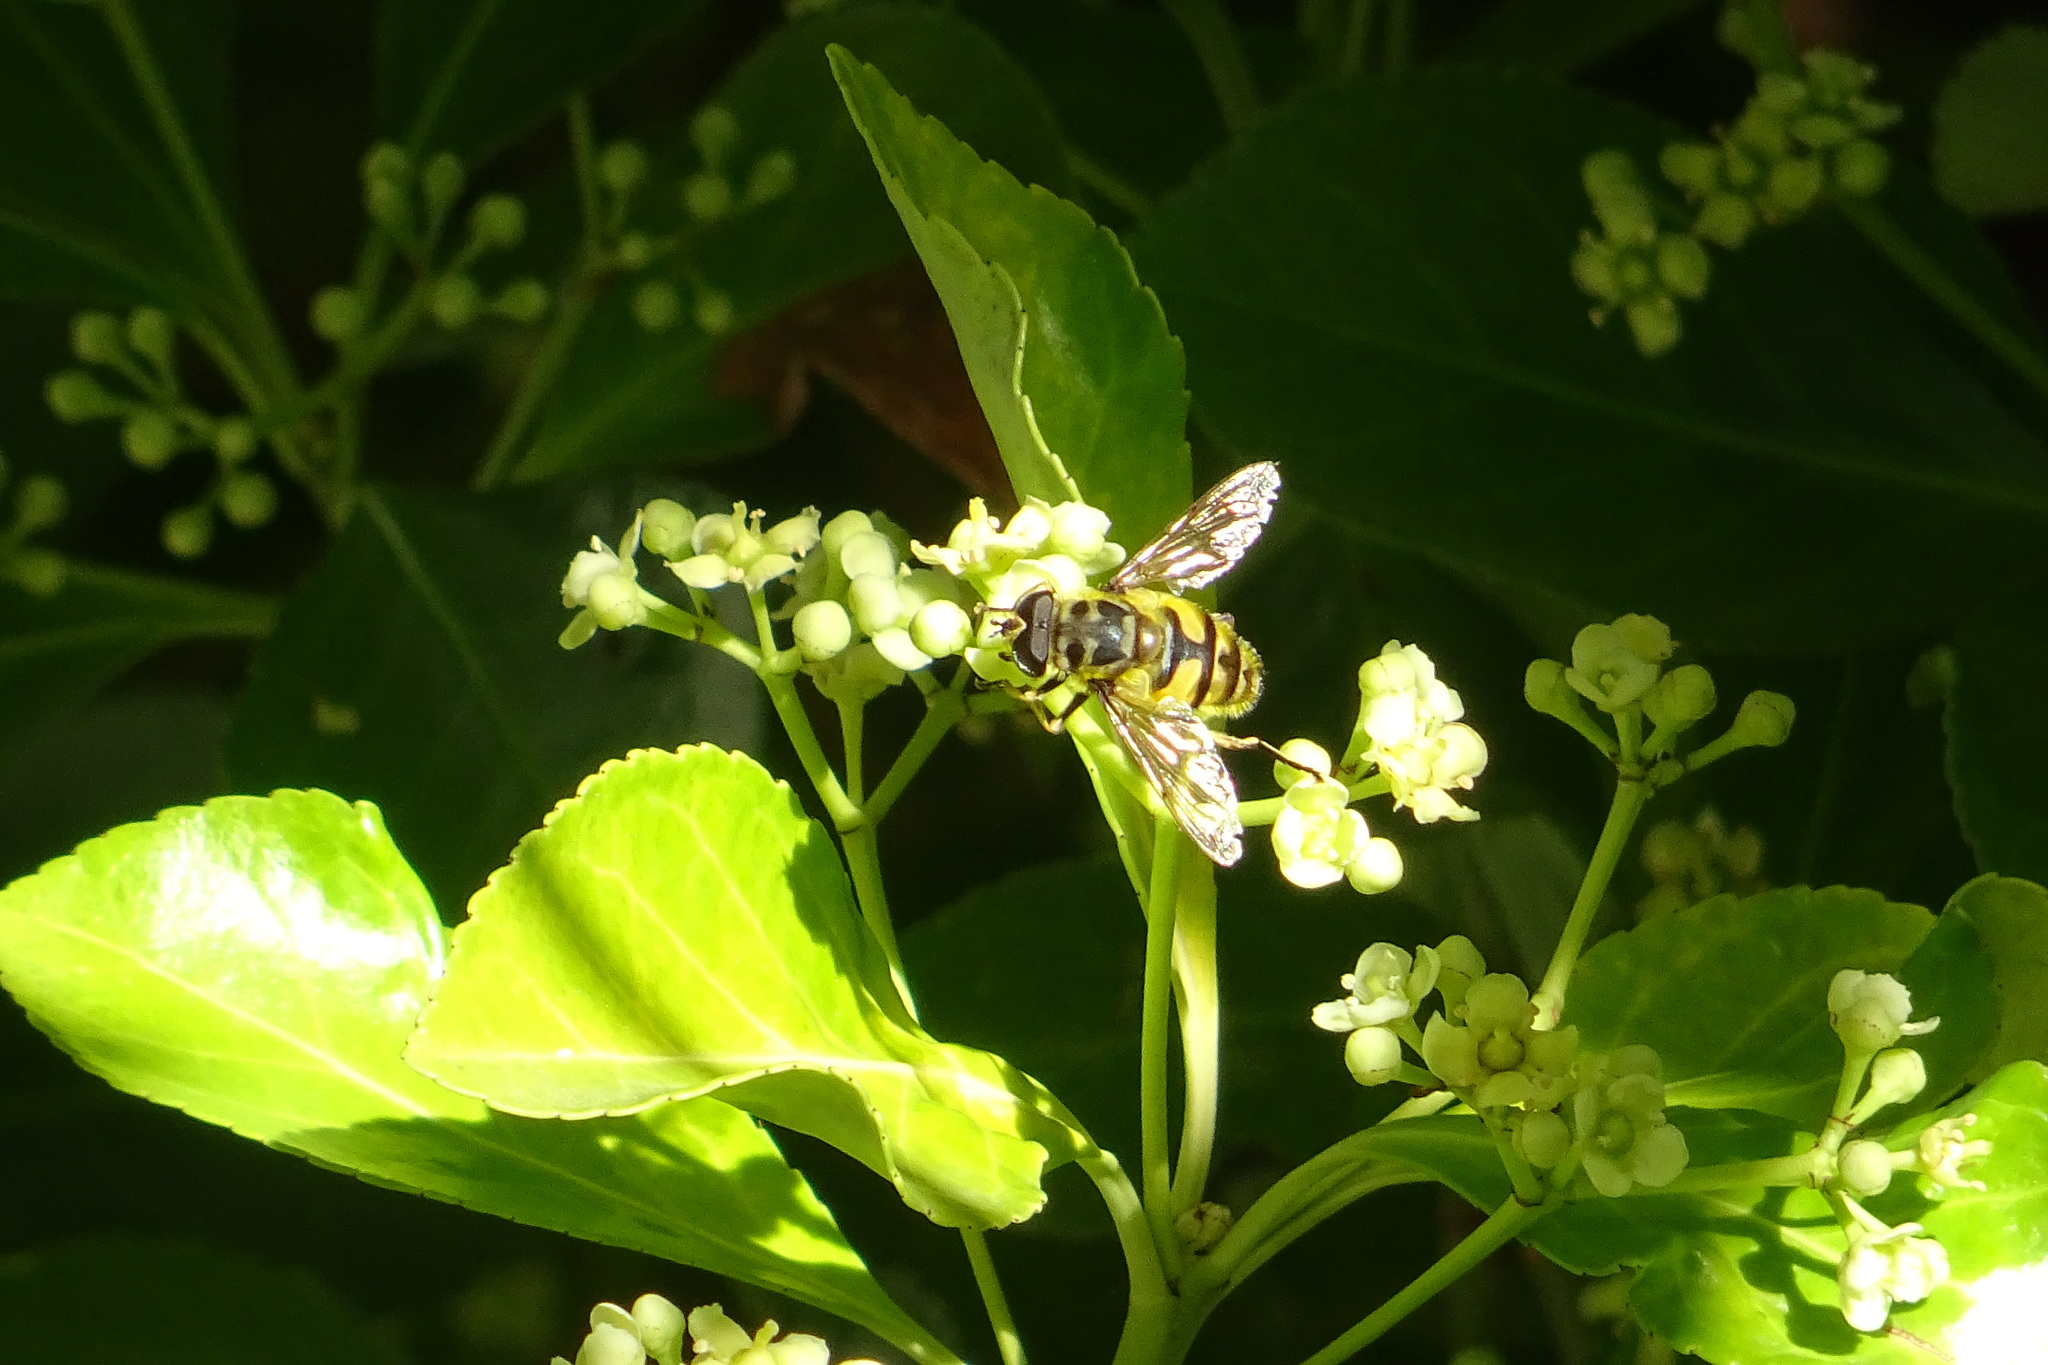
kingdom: Animalia
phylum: Arthropoda
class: Insecta
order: Diptera
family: Syrphidae
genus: Myathropa
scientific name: Myathropa florea
